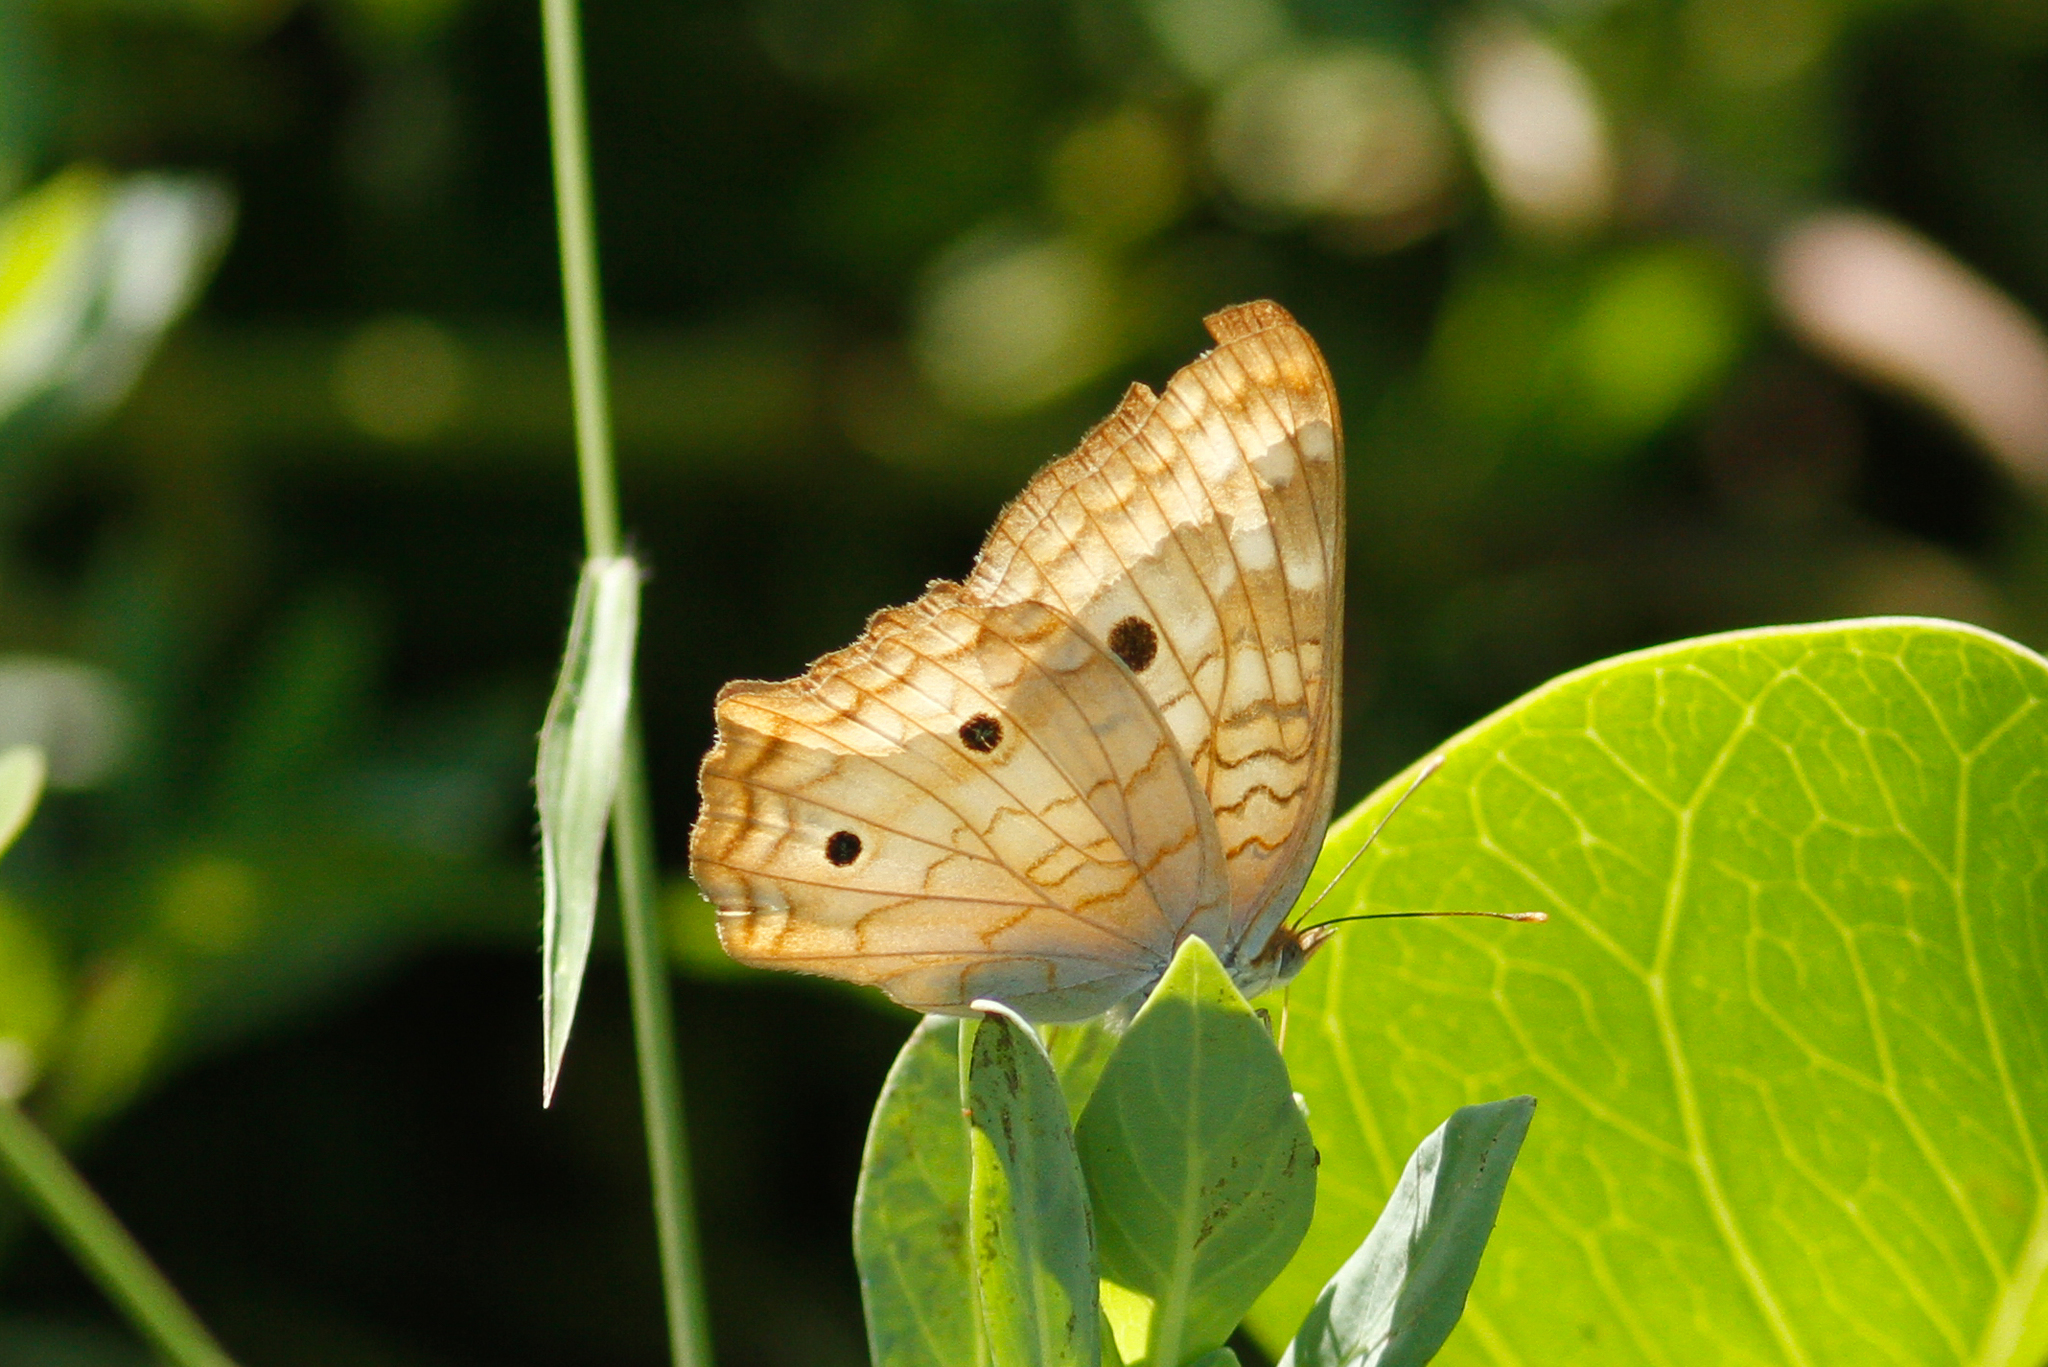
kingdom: Animalia
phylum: Arthropoda
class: Insecta
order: Lepidoptera
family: Nymphalidae
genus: Anartia
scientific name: Anartia jatrophae
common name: White peacock
